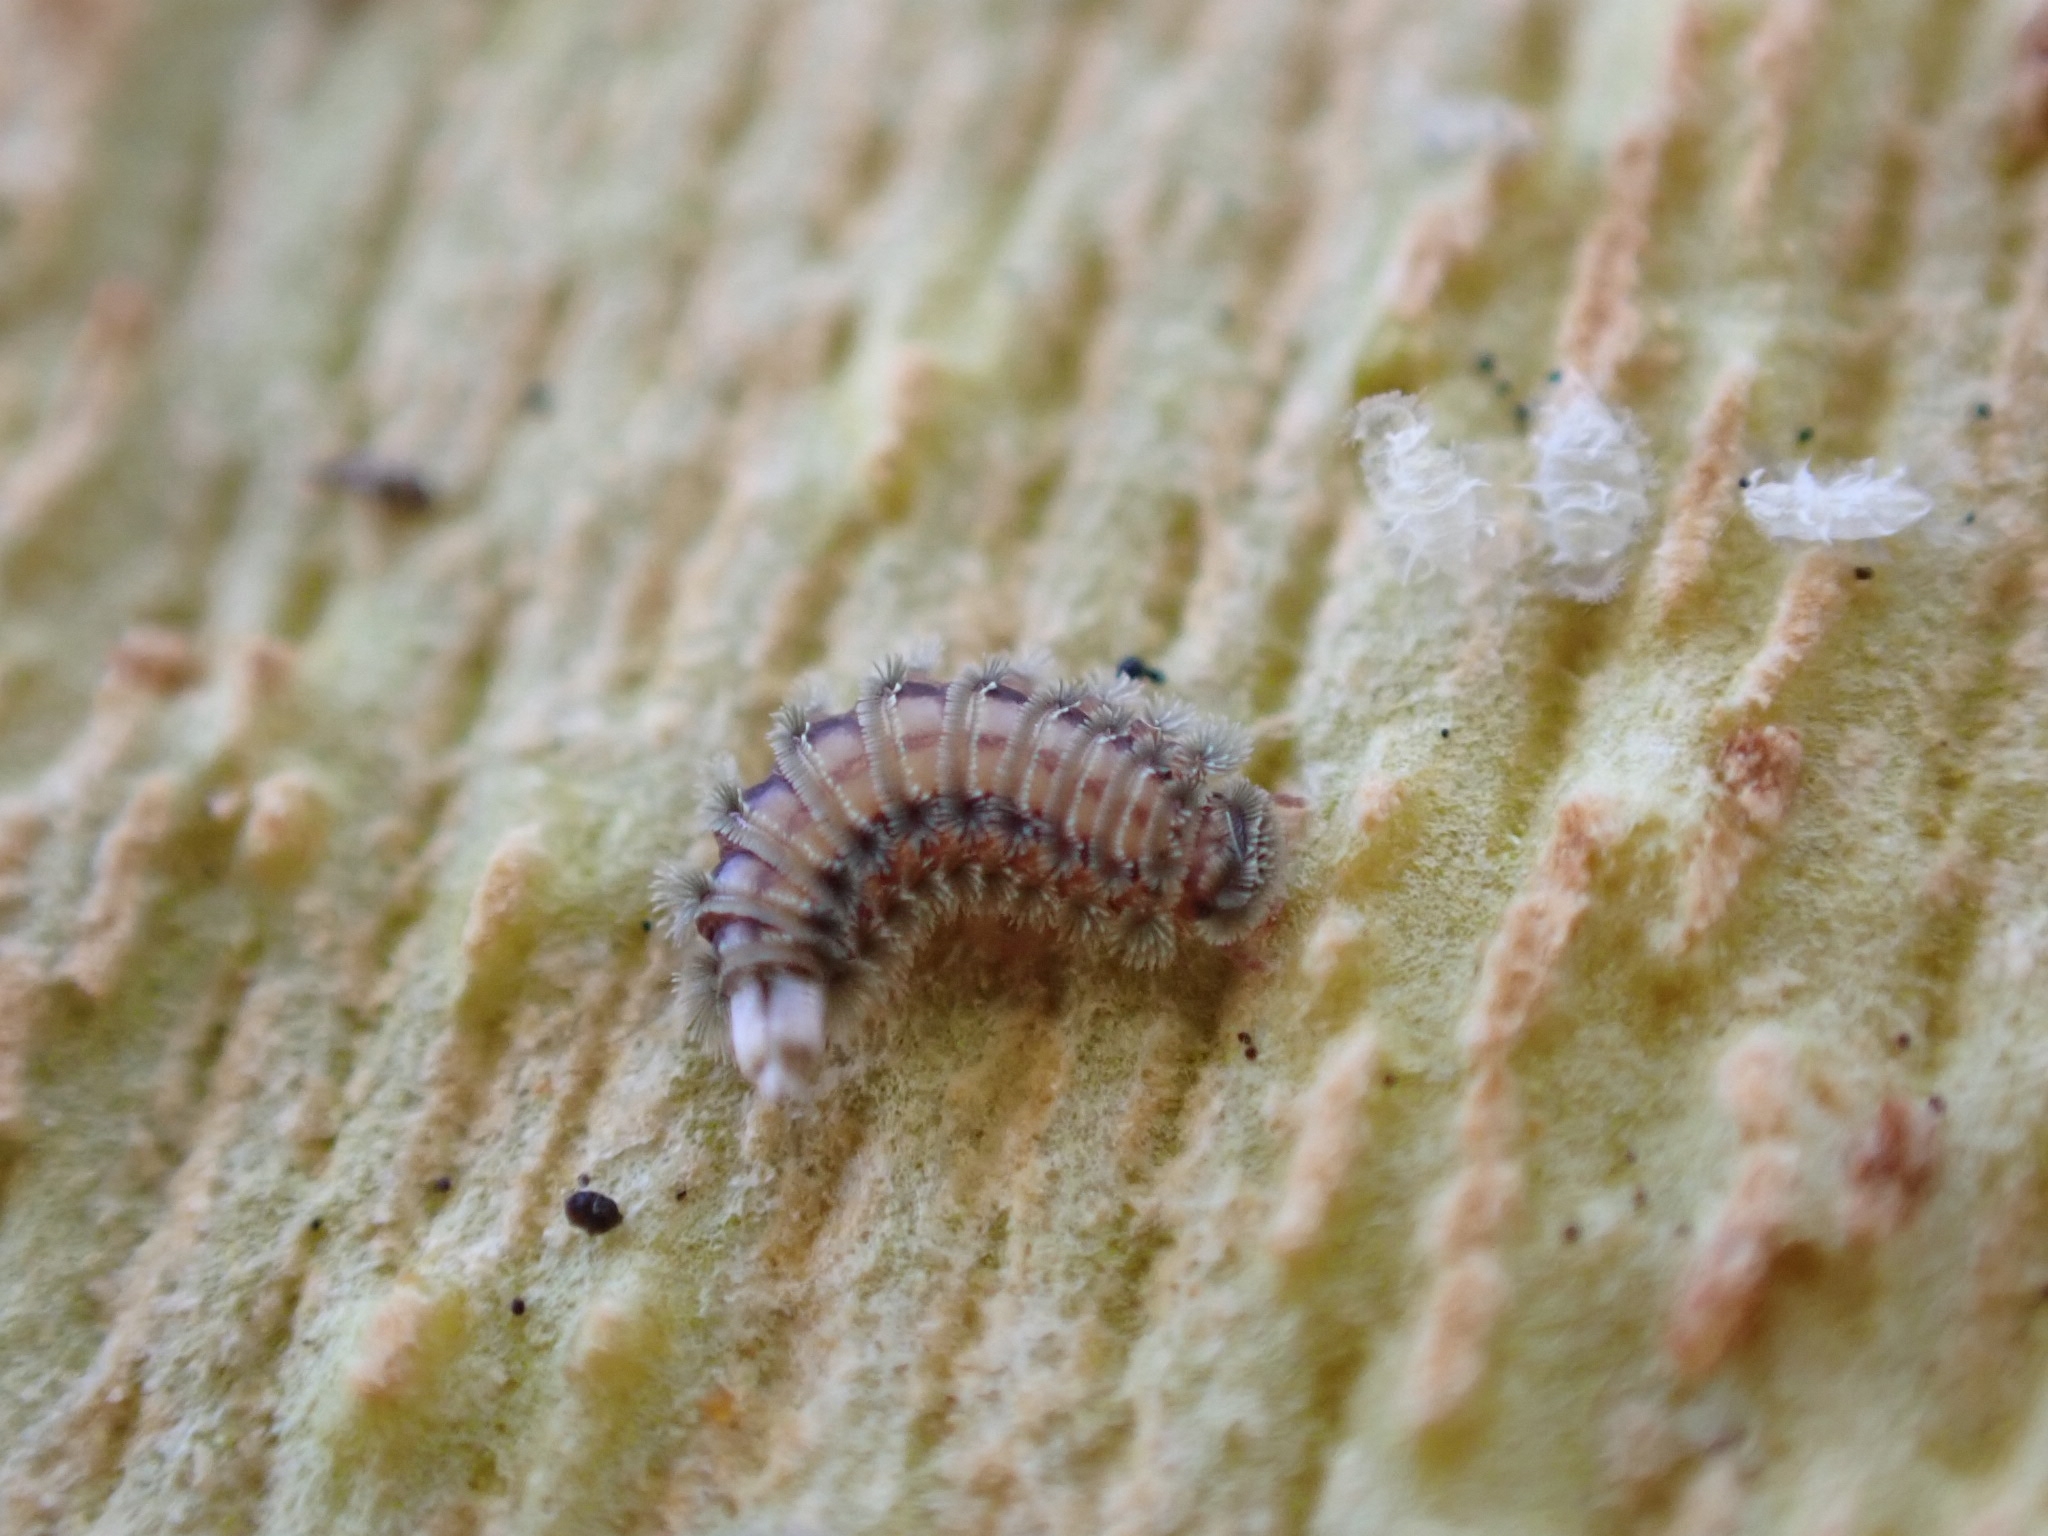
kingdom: Animalia
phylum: Arthropoda
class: Diplopoda
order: Polyxenida
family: Polyxenidae
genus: Polyxenus
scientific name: Polyxenus lagurus
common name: Bristly millipede
